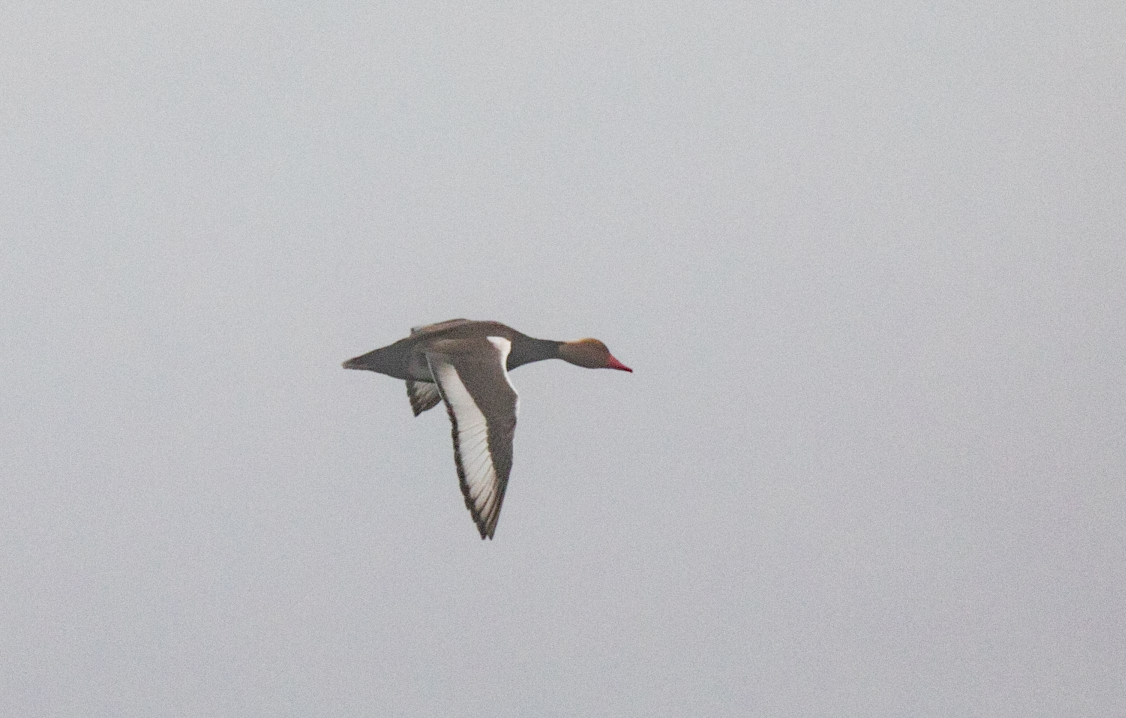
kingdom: Animalia
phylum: Chordata
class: Aves
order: Anseriformes
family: Anatidae
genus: Netta
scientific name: Netta rufina
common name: Red-crested pochard
